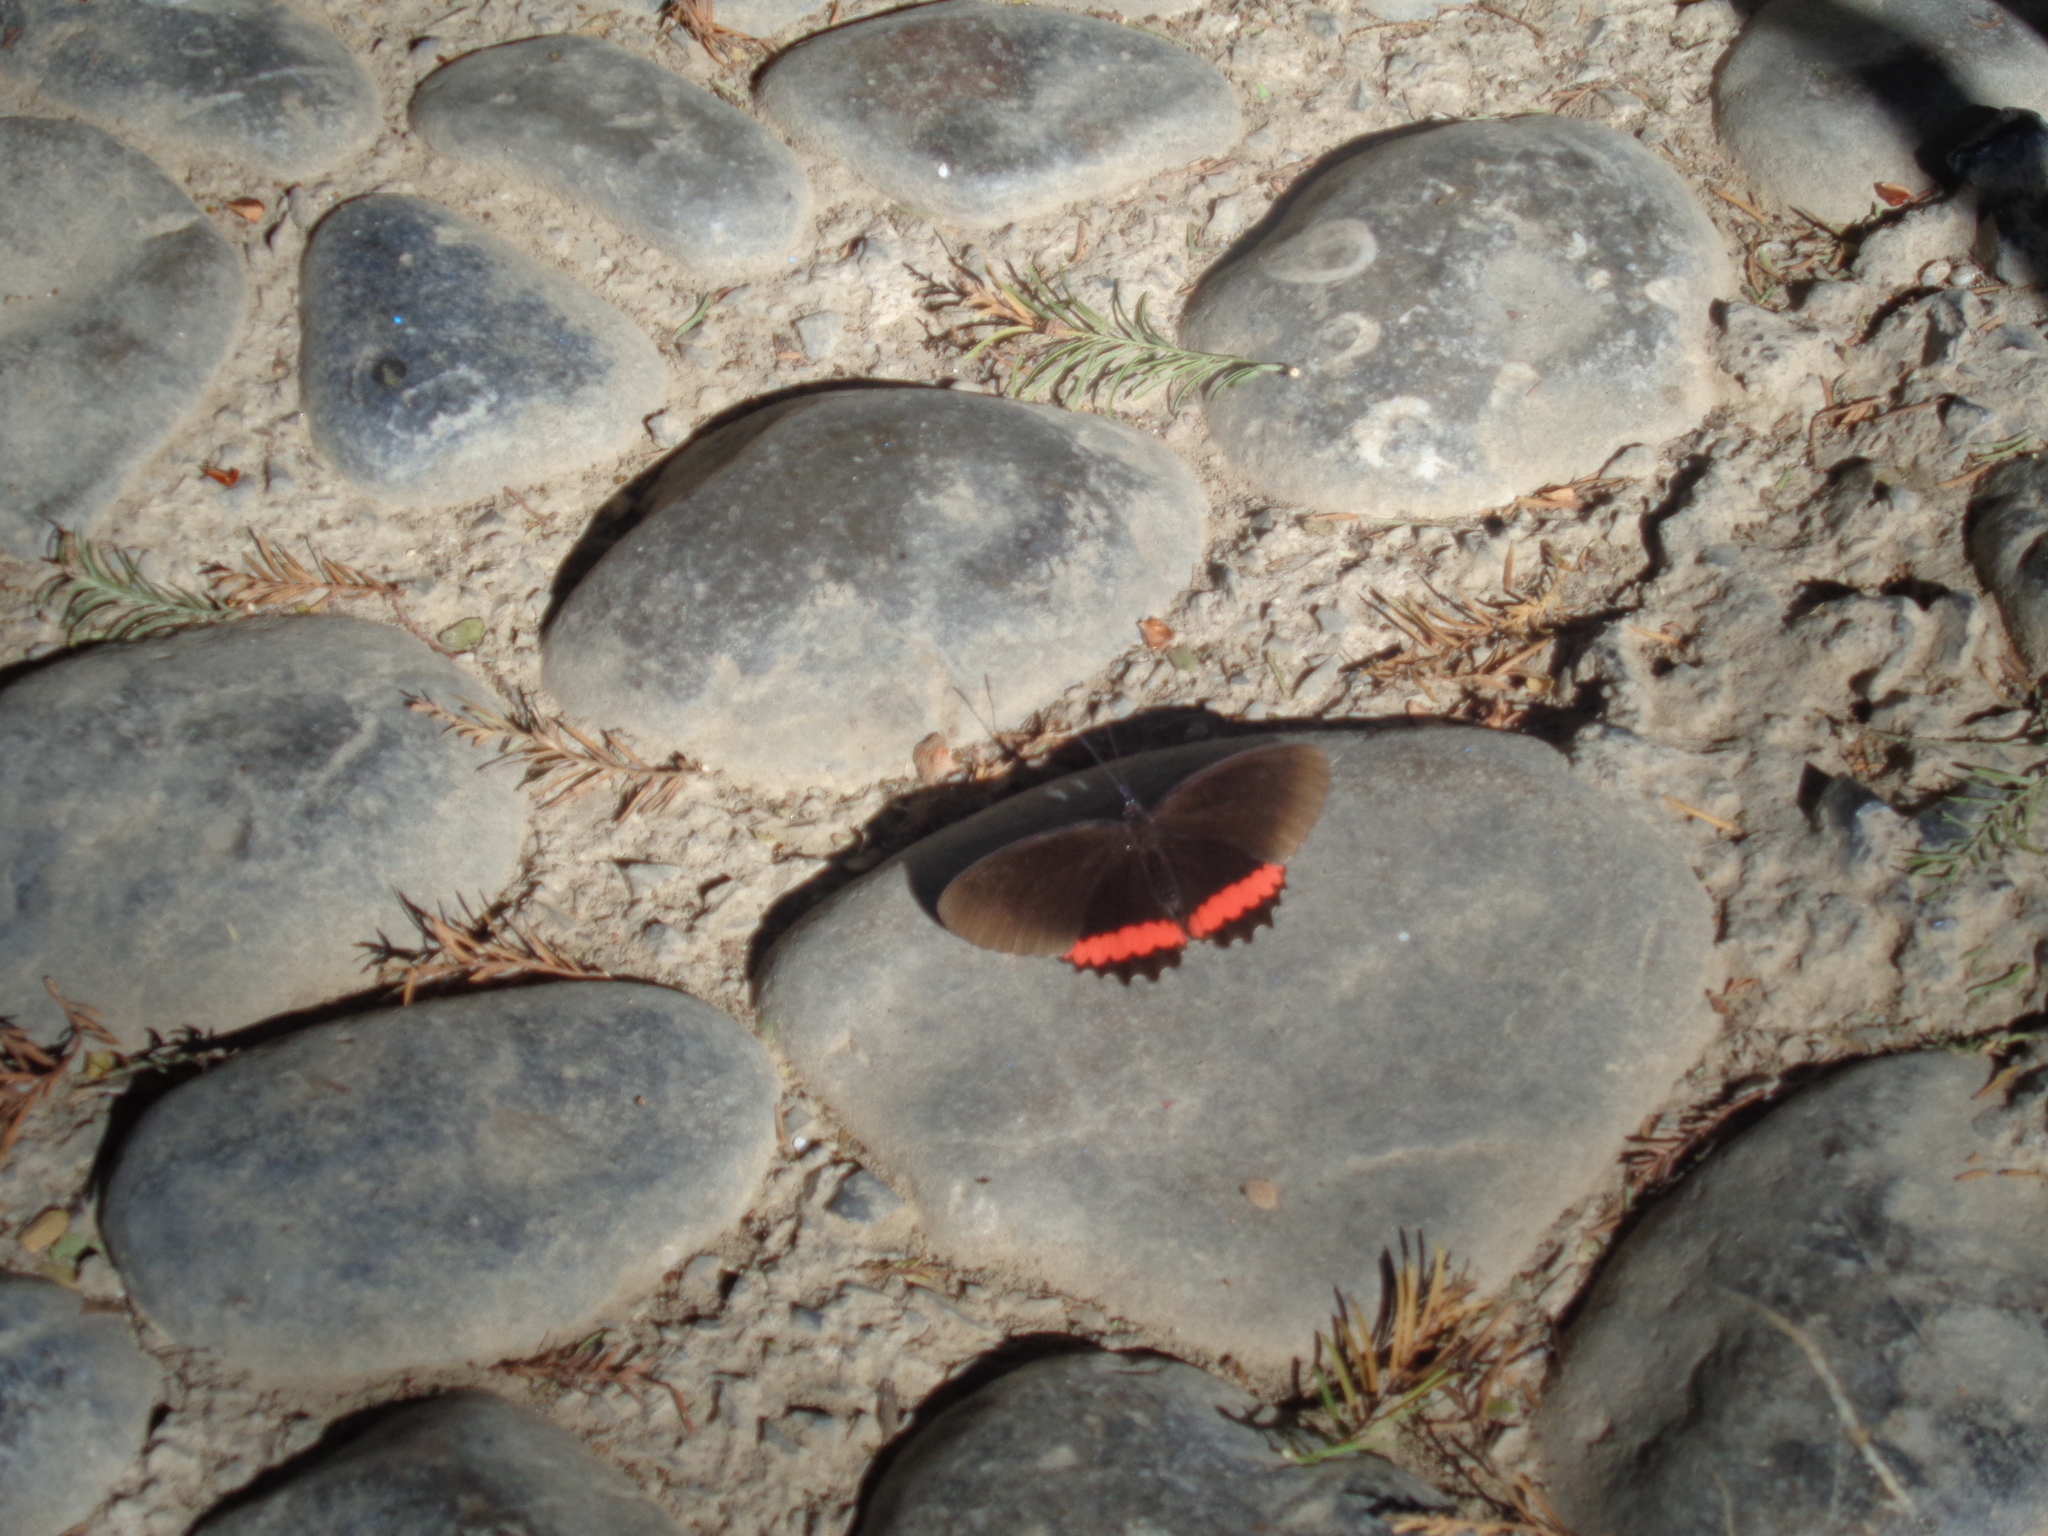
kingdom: Animalia
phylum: Arthropoda
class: Insecta
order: Lepidoptera
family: Nymphalidae
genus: Biblis
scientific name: Biblis aganisa
